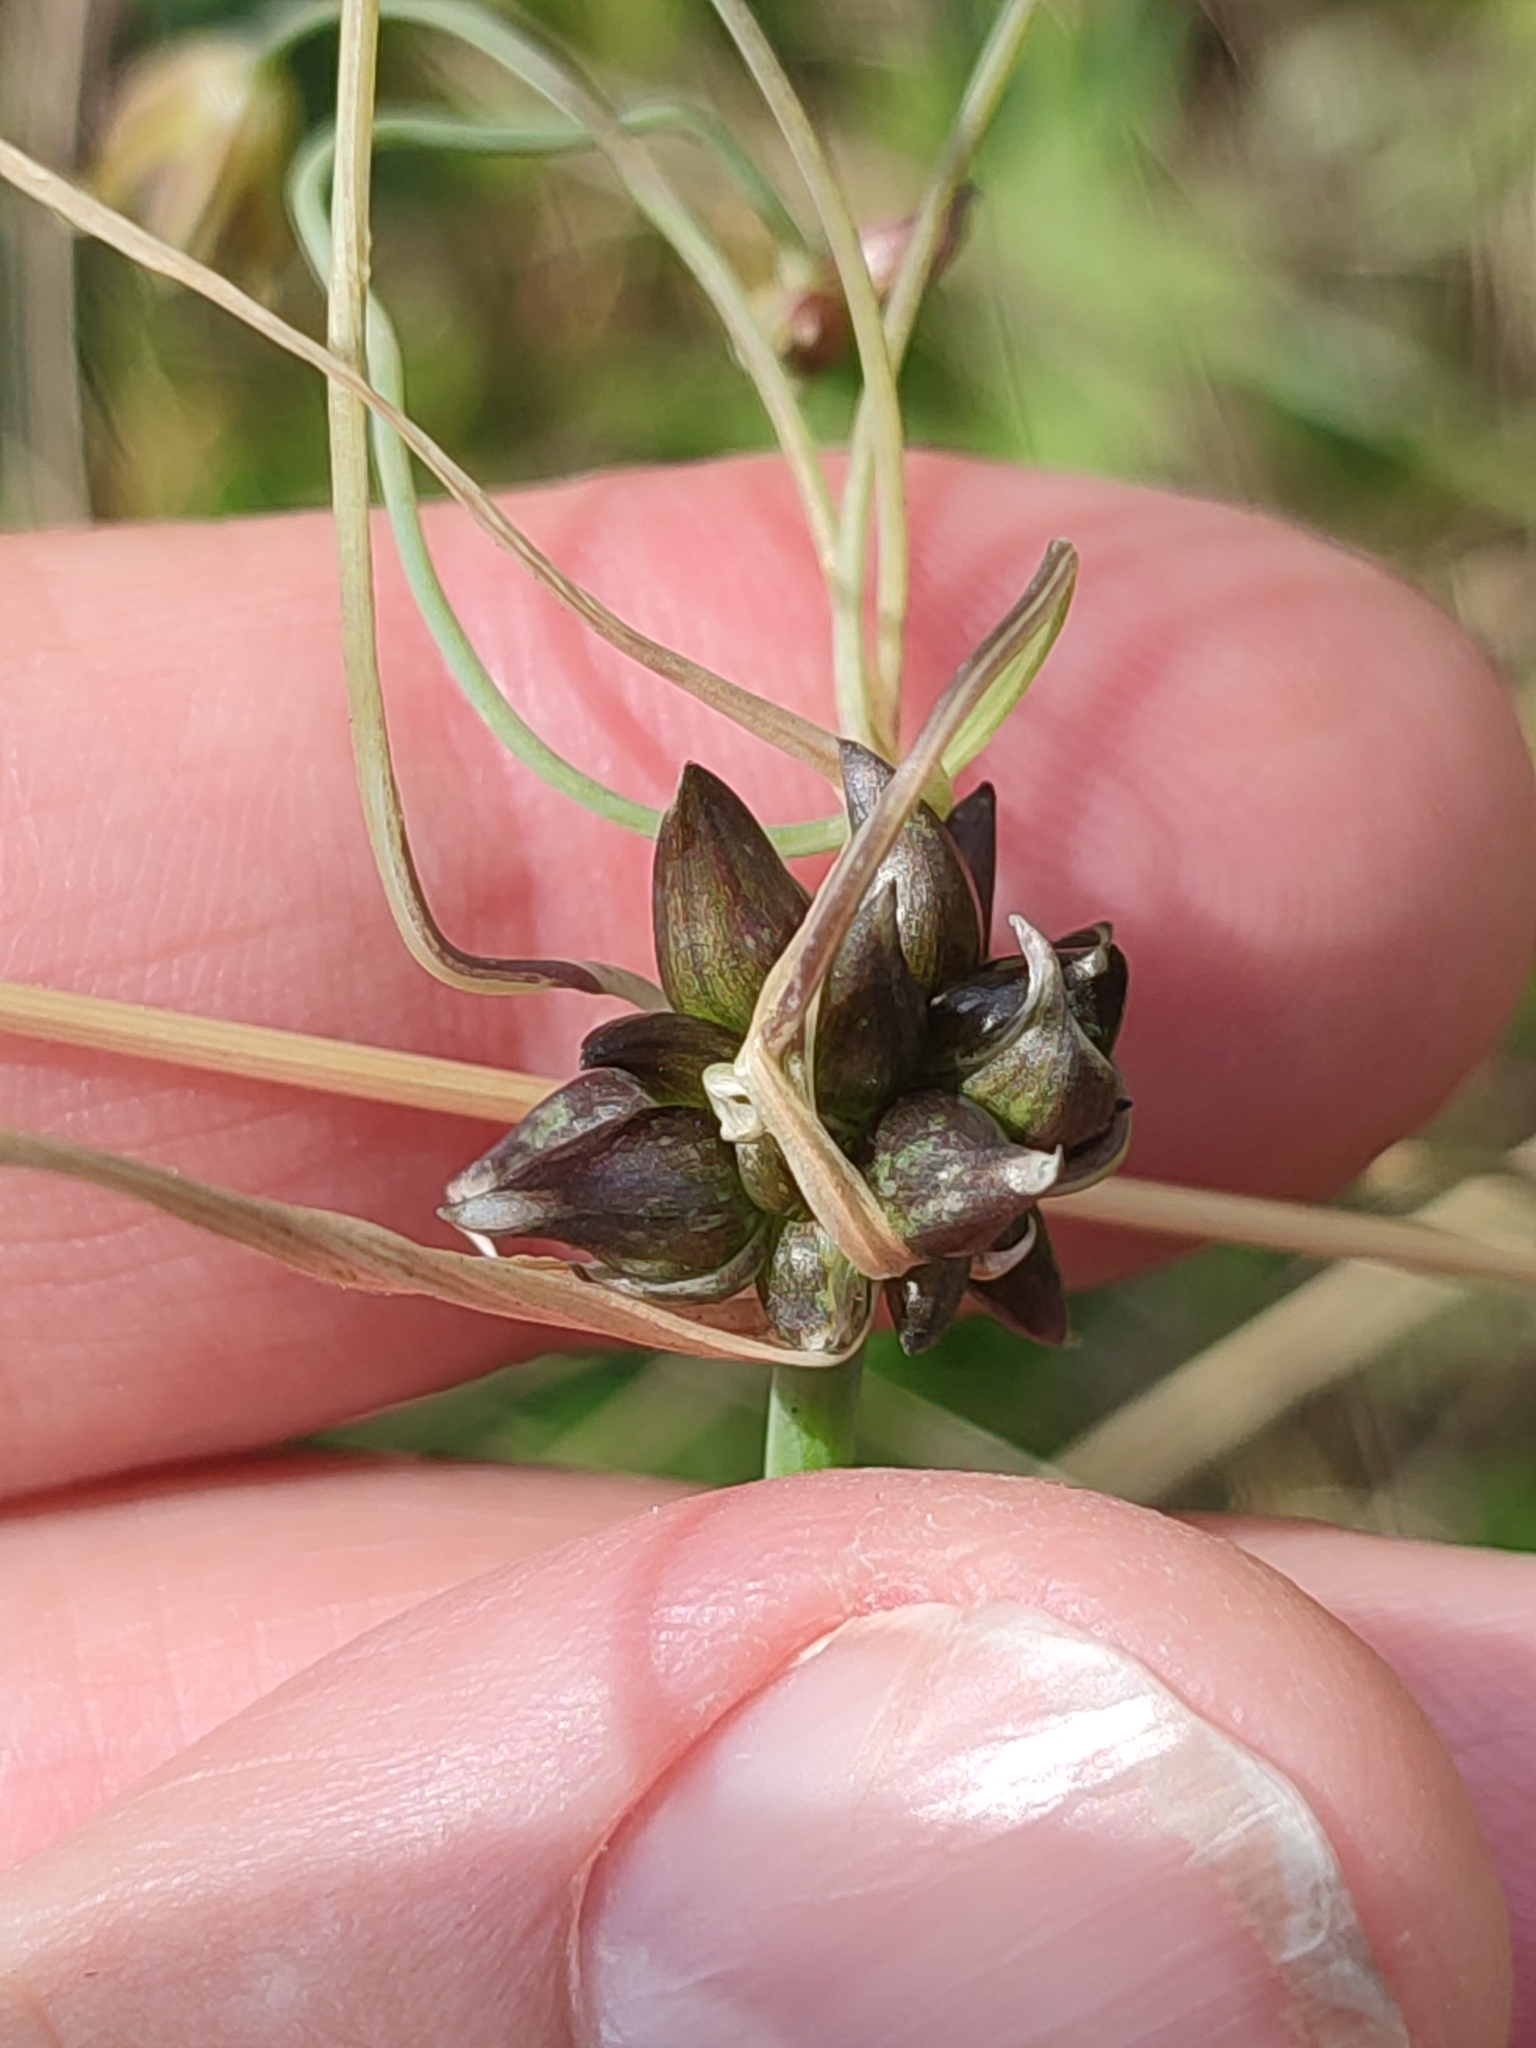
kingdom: Plantae
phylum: Tracheophyta
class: Liliopsida
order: Asparagales
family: Amaryllidaceae
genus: Allium
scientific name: Allium oleraceum
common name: Field garlic
